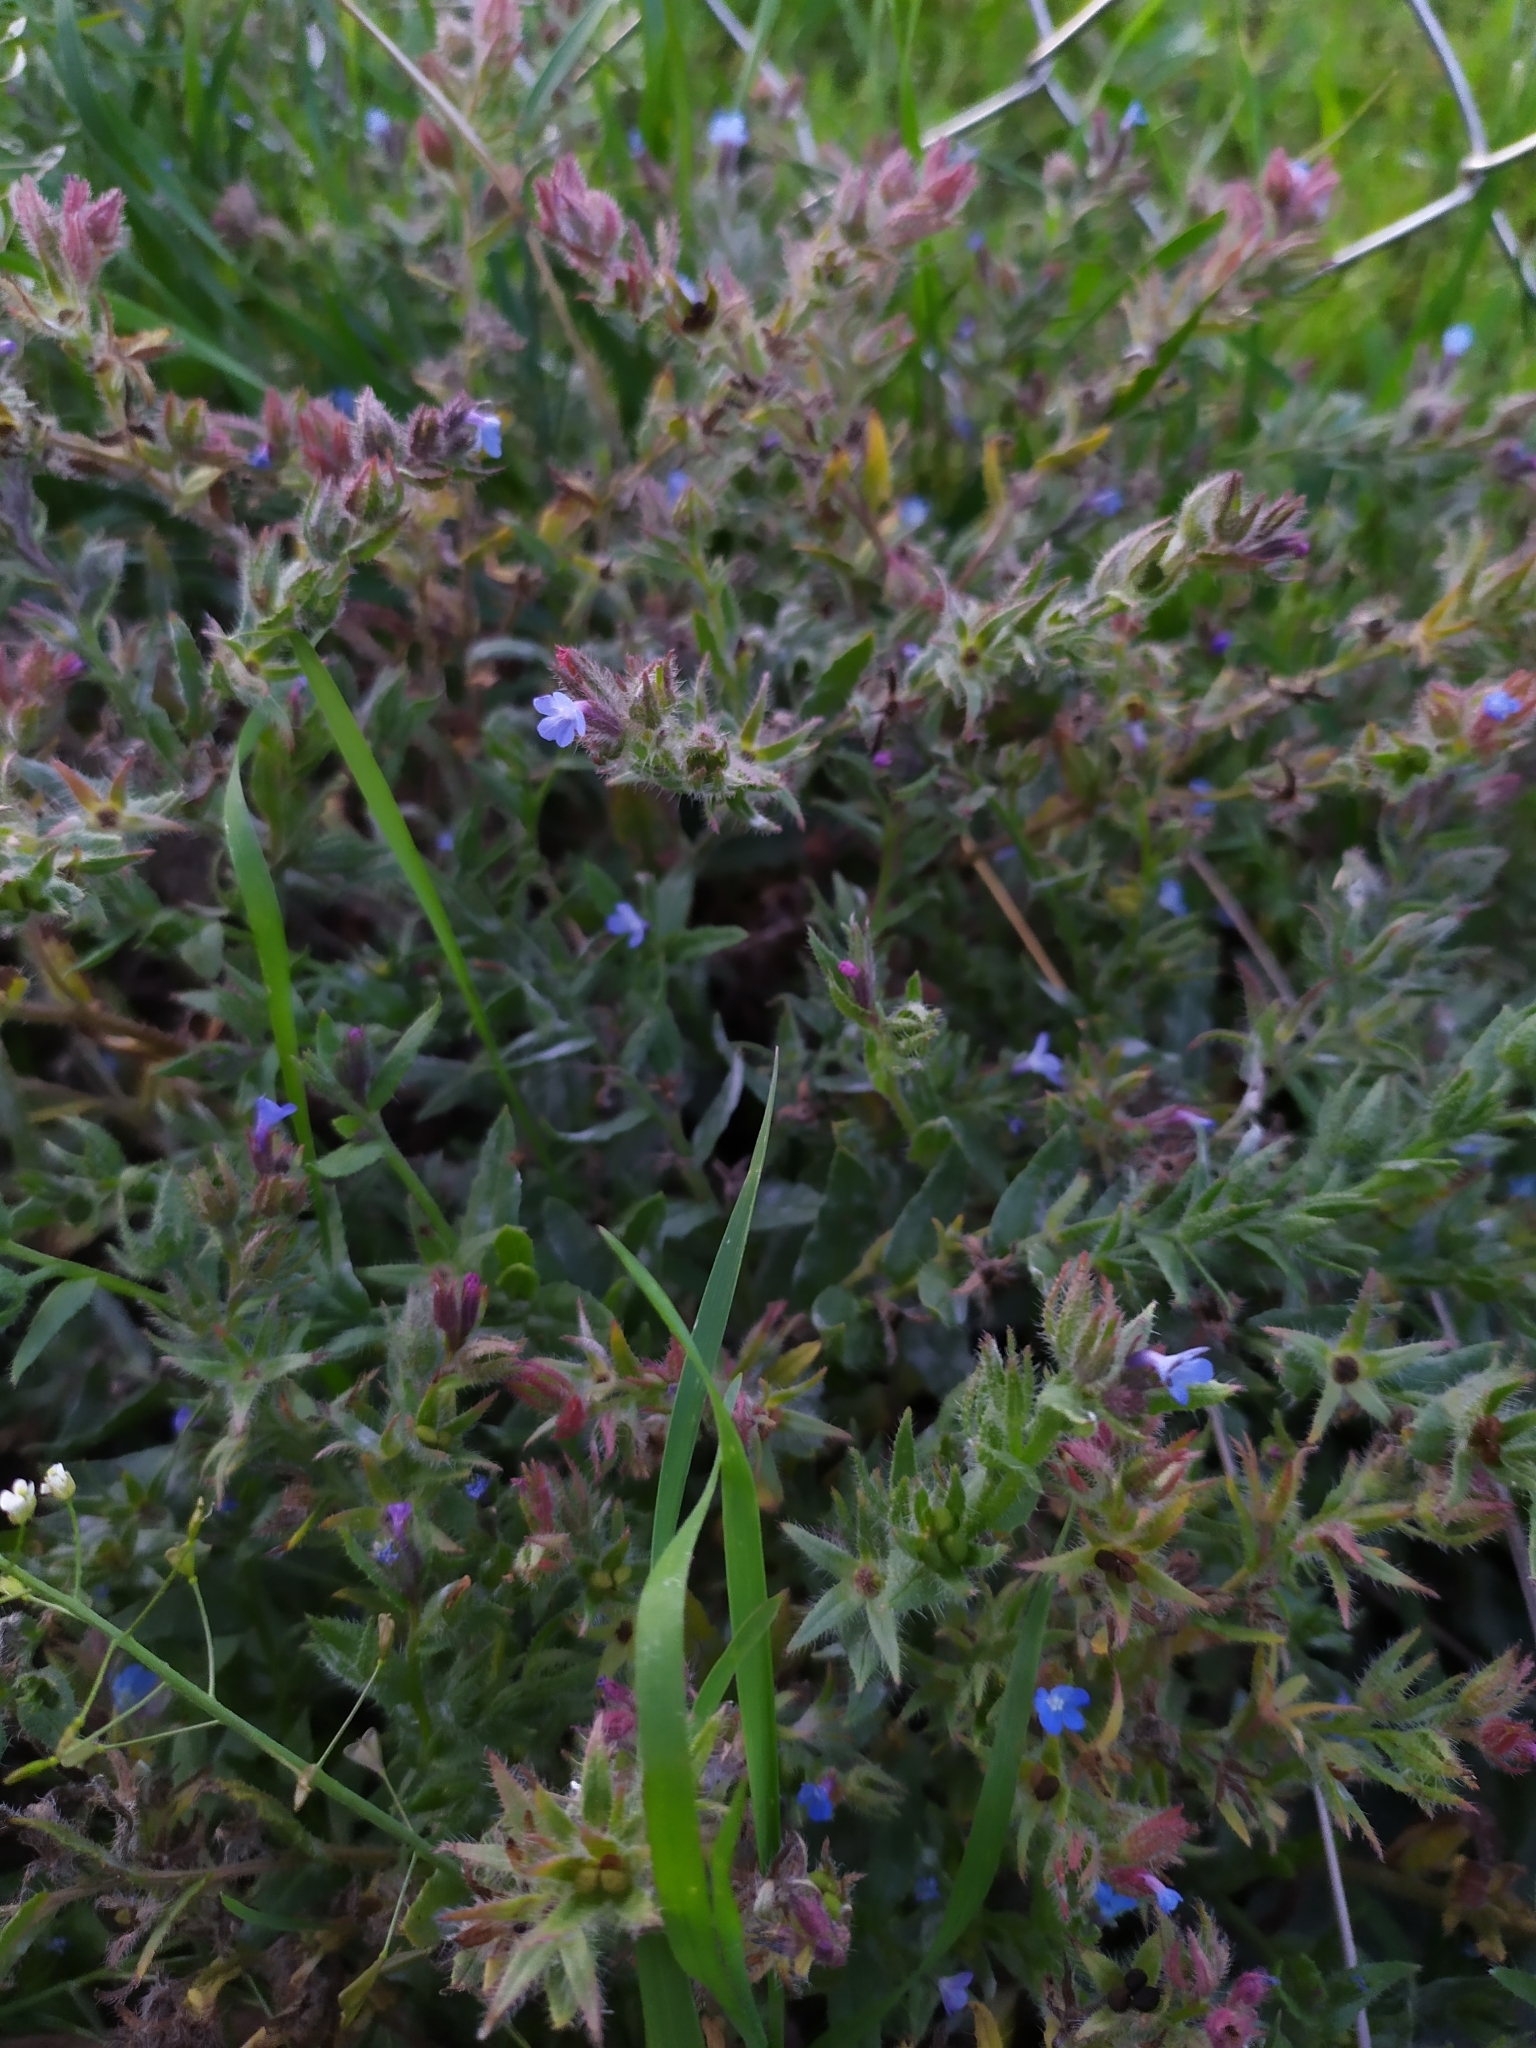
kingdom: Plantae
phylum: Tracheophyta
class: Magnoliopsida
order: Boraginales
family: Boraginaceae
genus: Lycopsis
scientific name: Lycopsis arvensis
